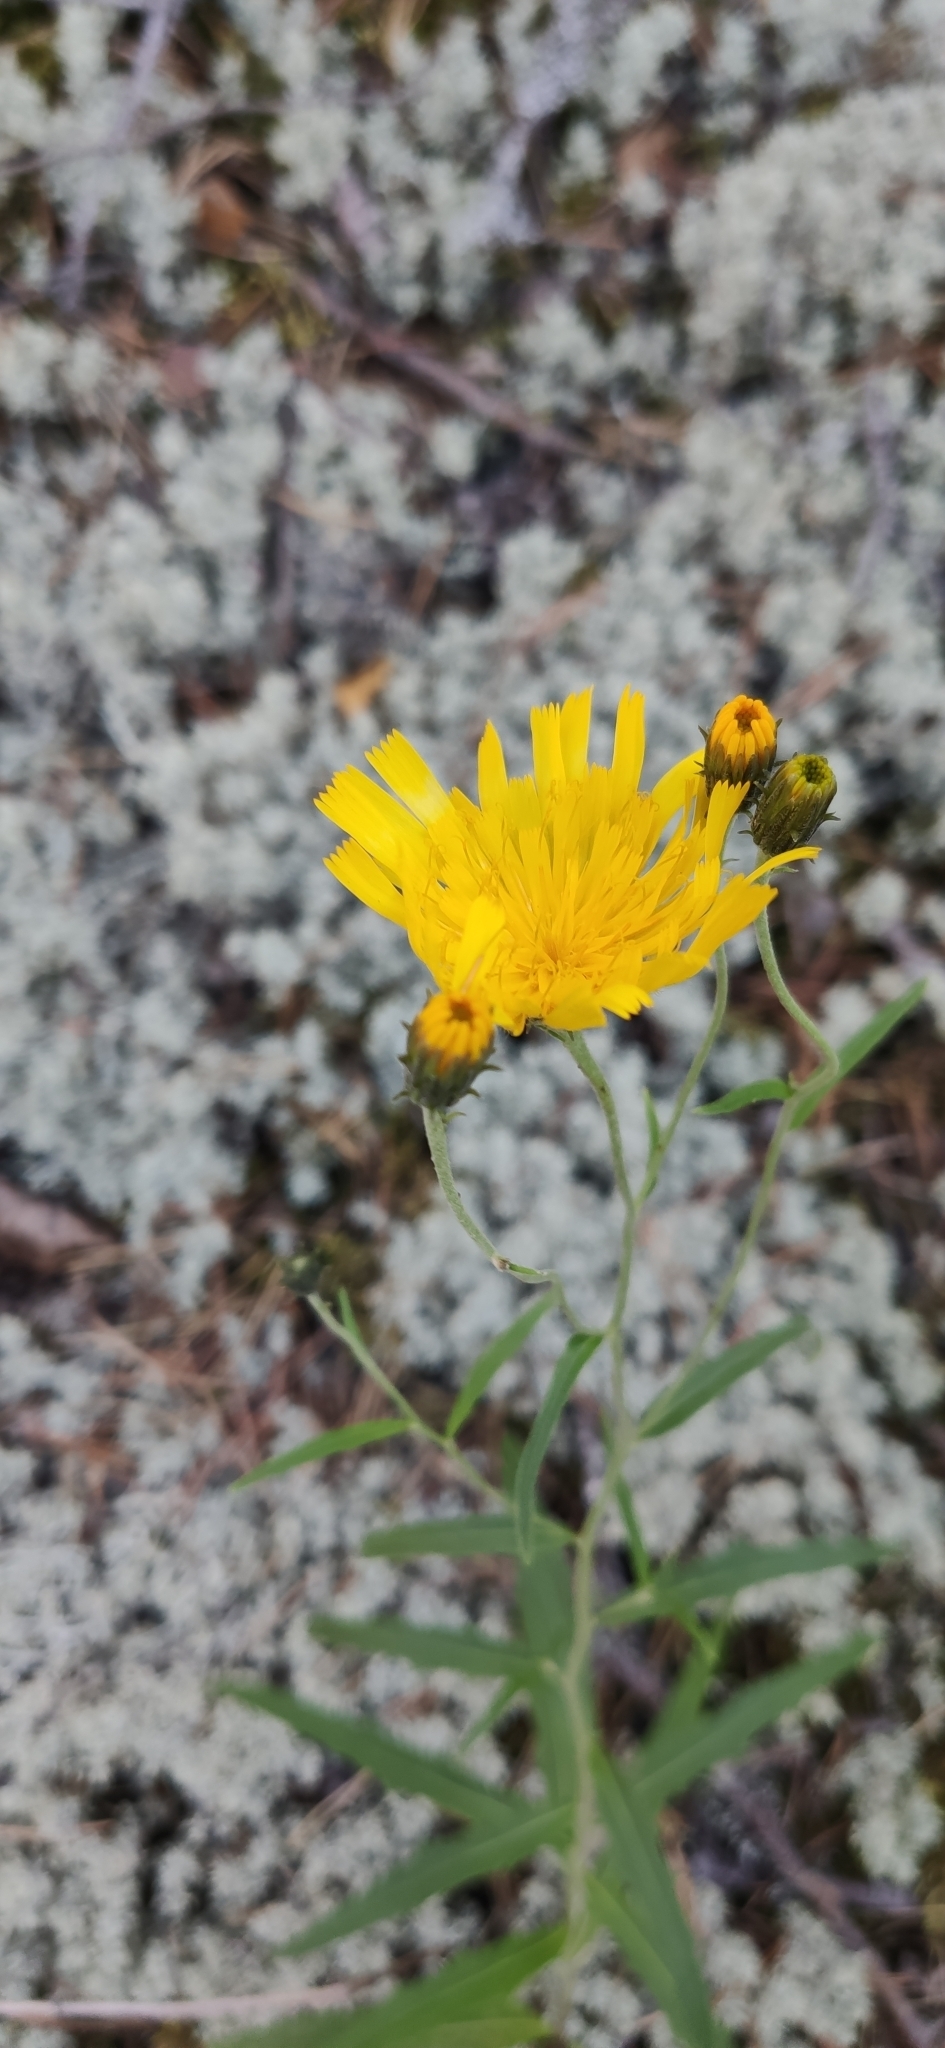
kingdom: Plantae
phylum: Tracheophyta
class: Magnoliopsida
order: Asterales
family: Asteraceae
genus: Hieracium
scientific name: Hieracium umbellatum
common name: Northern hawkweed
